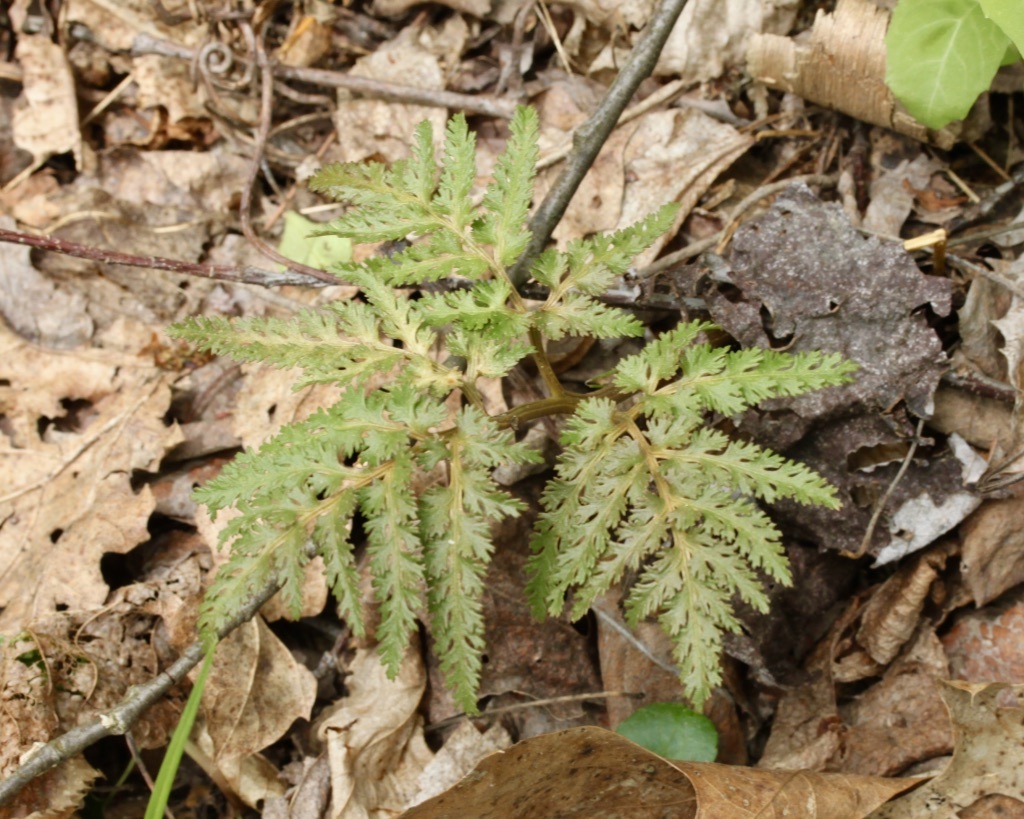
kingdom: Plantae
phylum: Tracheophyta
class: Polypodiopsida
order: Ophioglossales
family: Ophioglossaceae
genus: Sceptridium
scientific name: Sceptridium dissectum
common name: Cut-leaved grapefern
